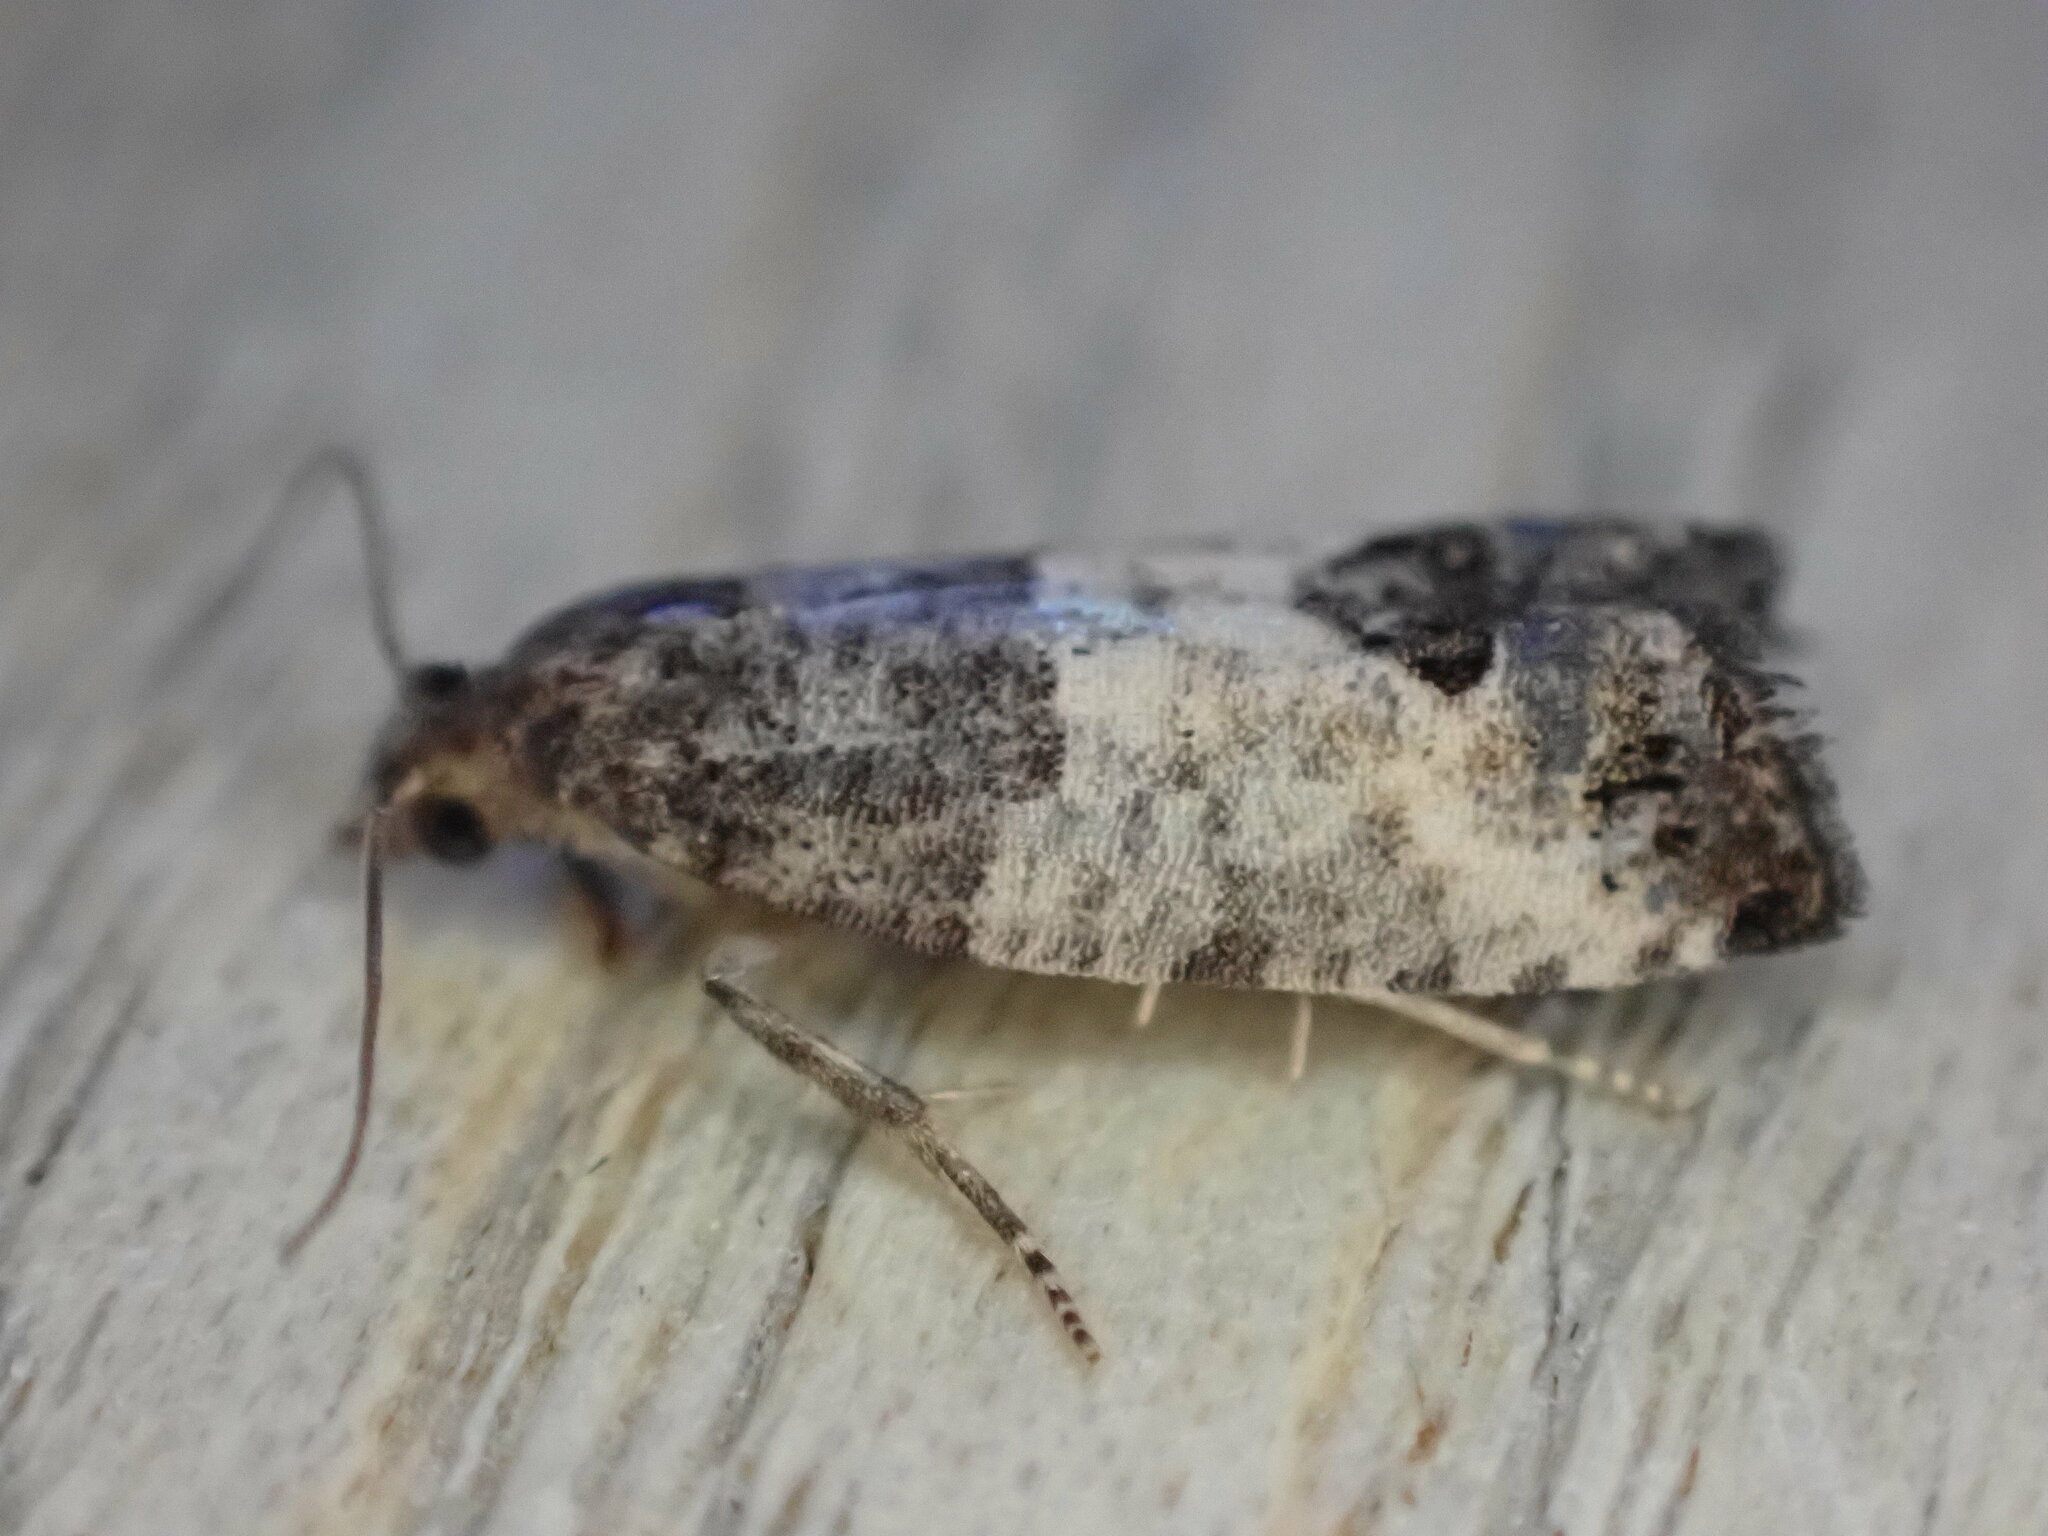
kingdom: Animalia
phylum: Arthropoda
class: Insecta
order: Lepidoptera
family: Tortricidae
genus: Spilonota
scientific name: Spilonota ocellana
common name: Bud moth
